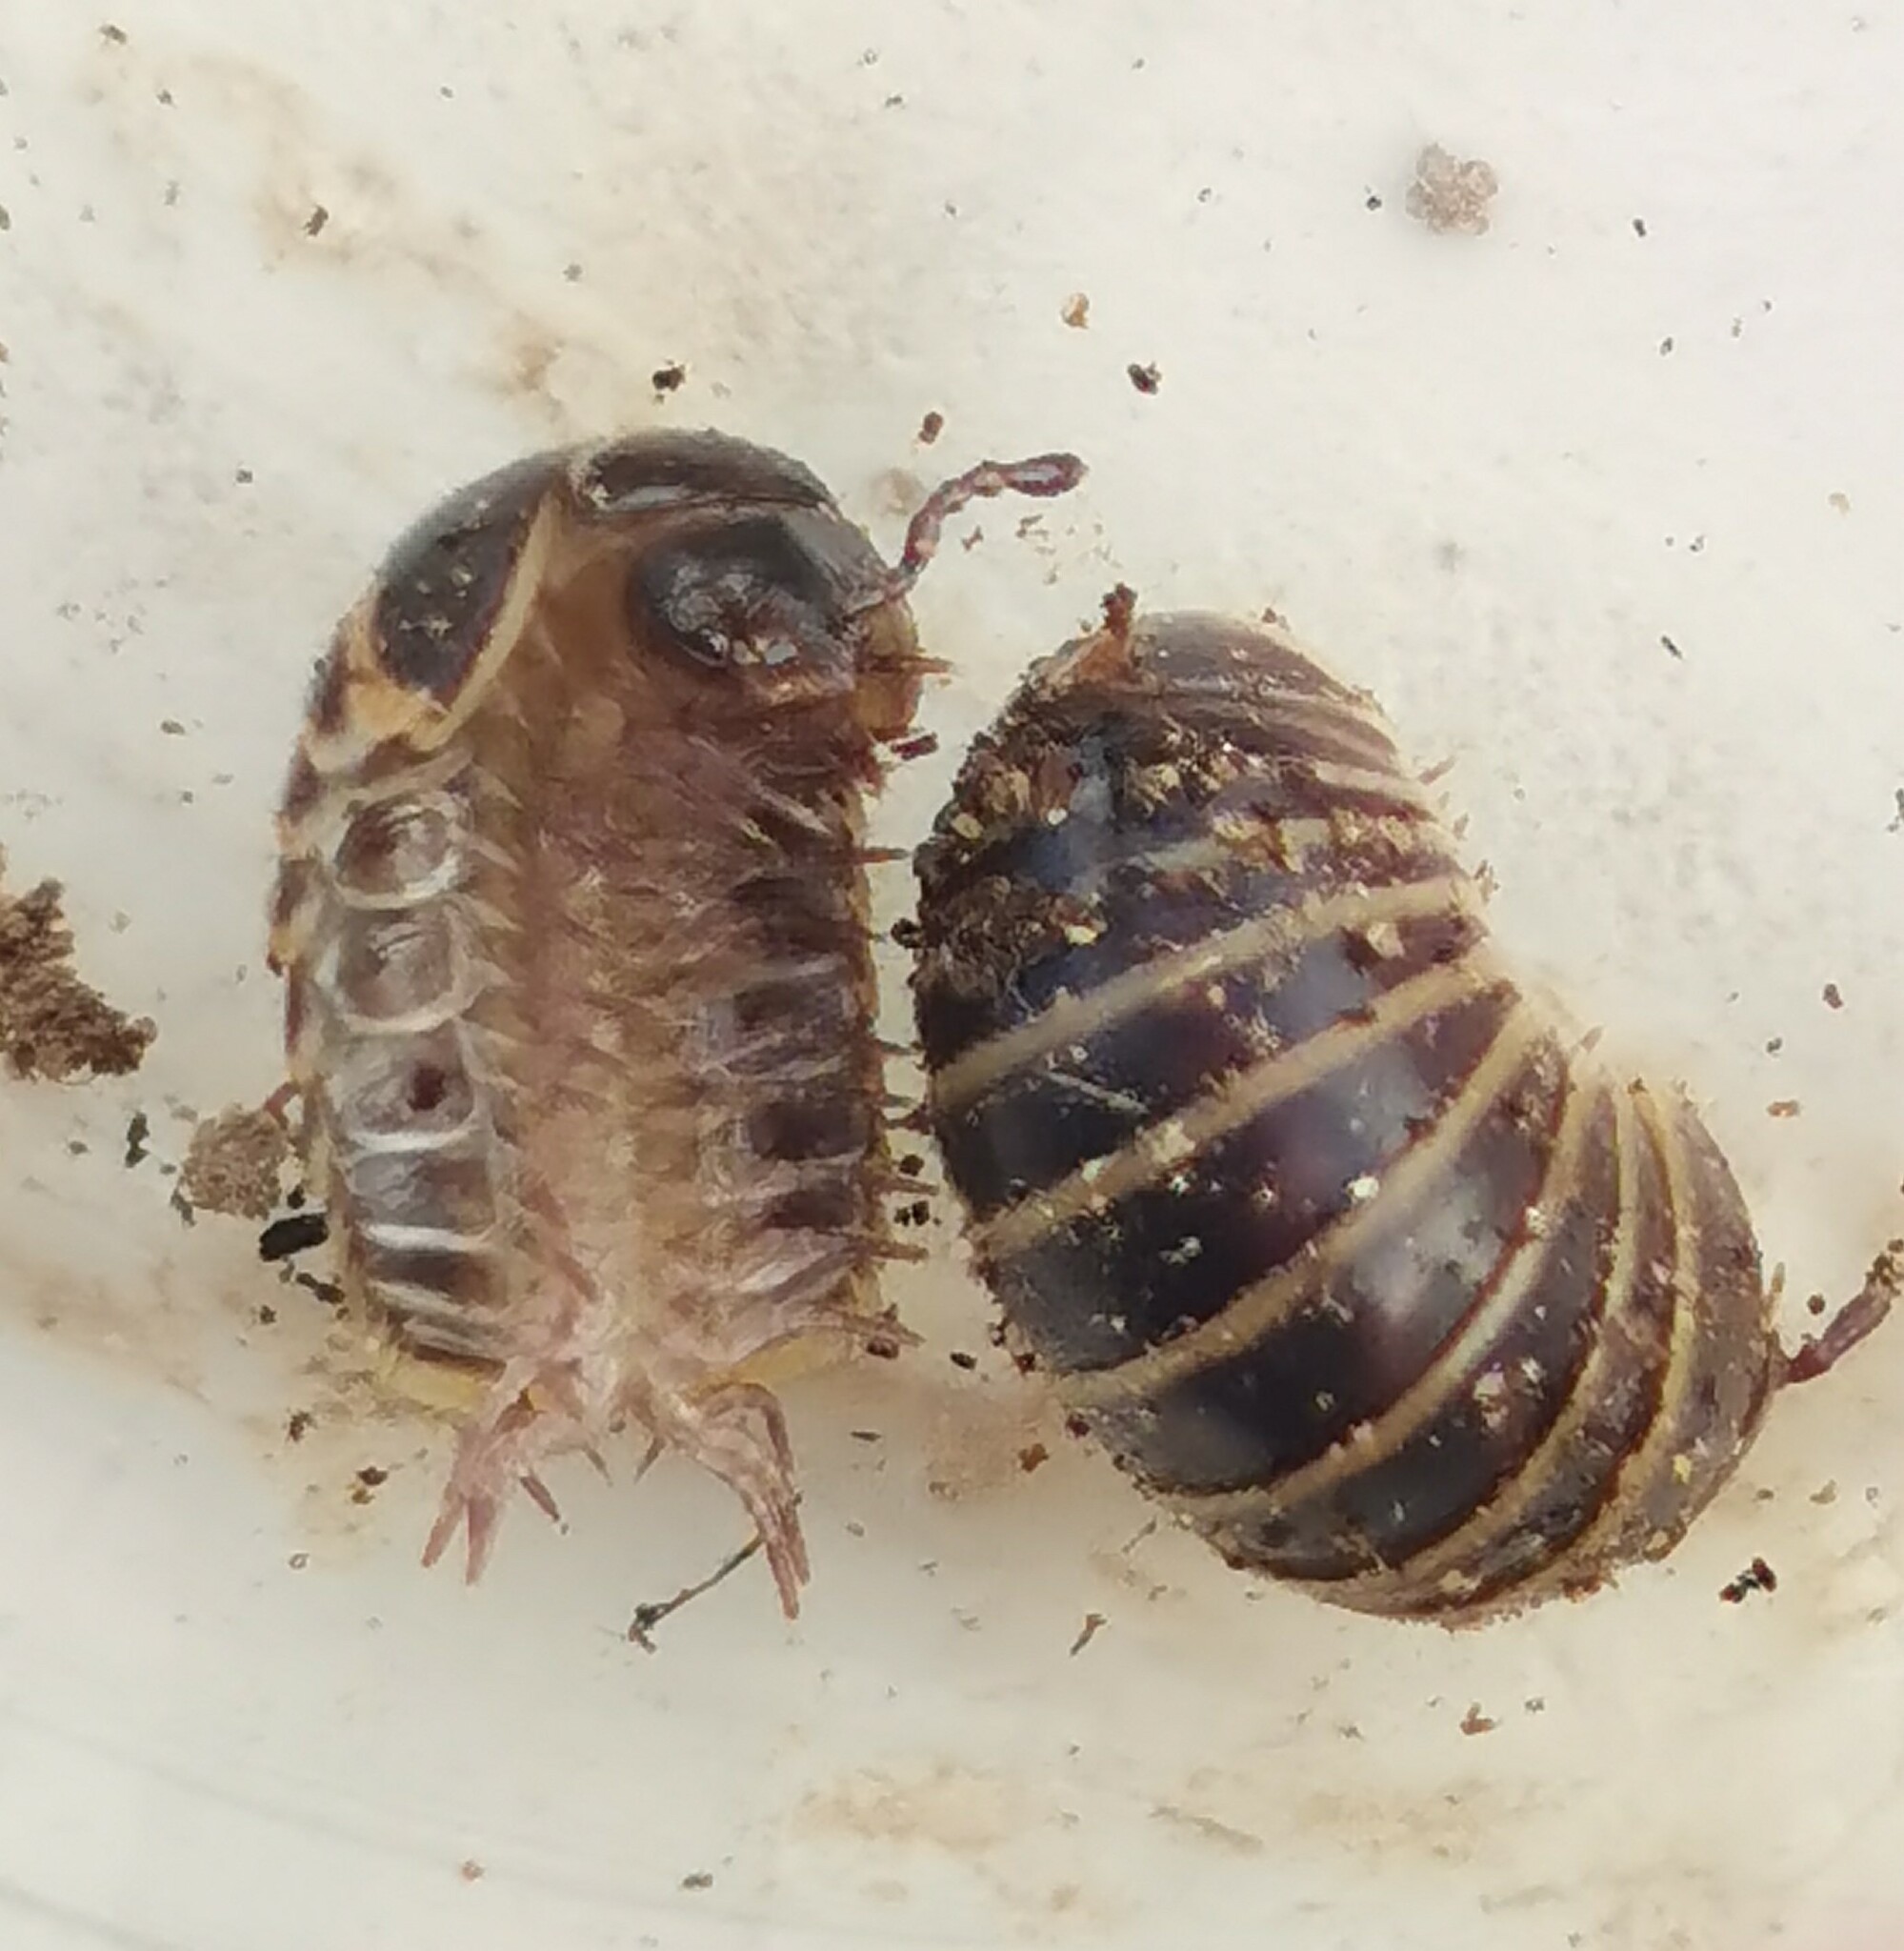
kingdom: Animalia
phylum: Arthropoda
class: Diplopoda
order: Glomerida
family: Glomeridae
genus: Glomeris
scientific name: Glomeris marginata
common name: Bordered pill millipede
